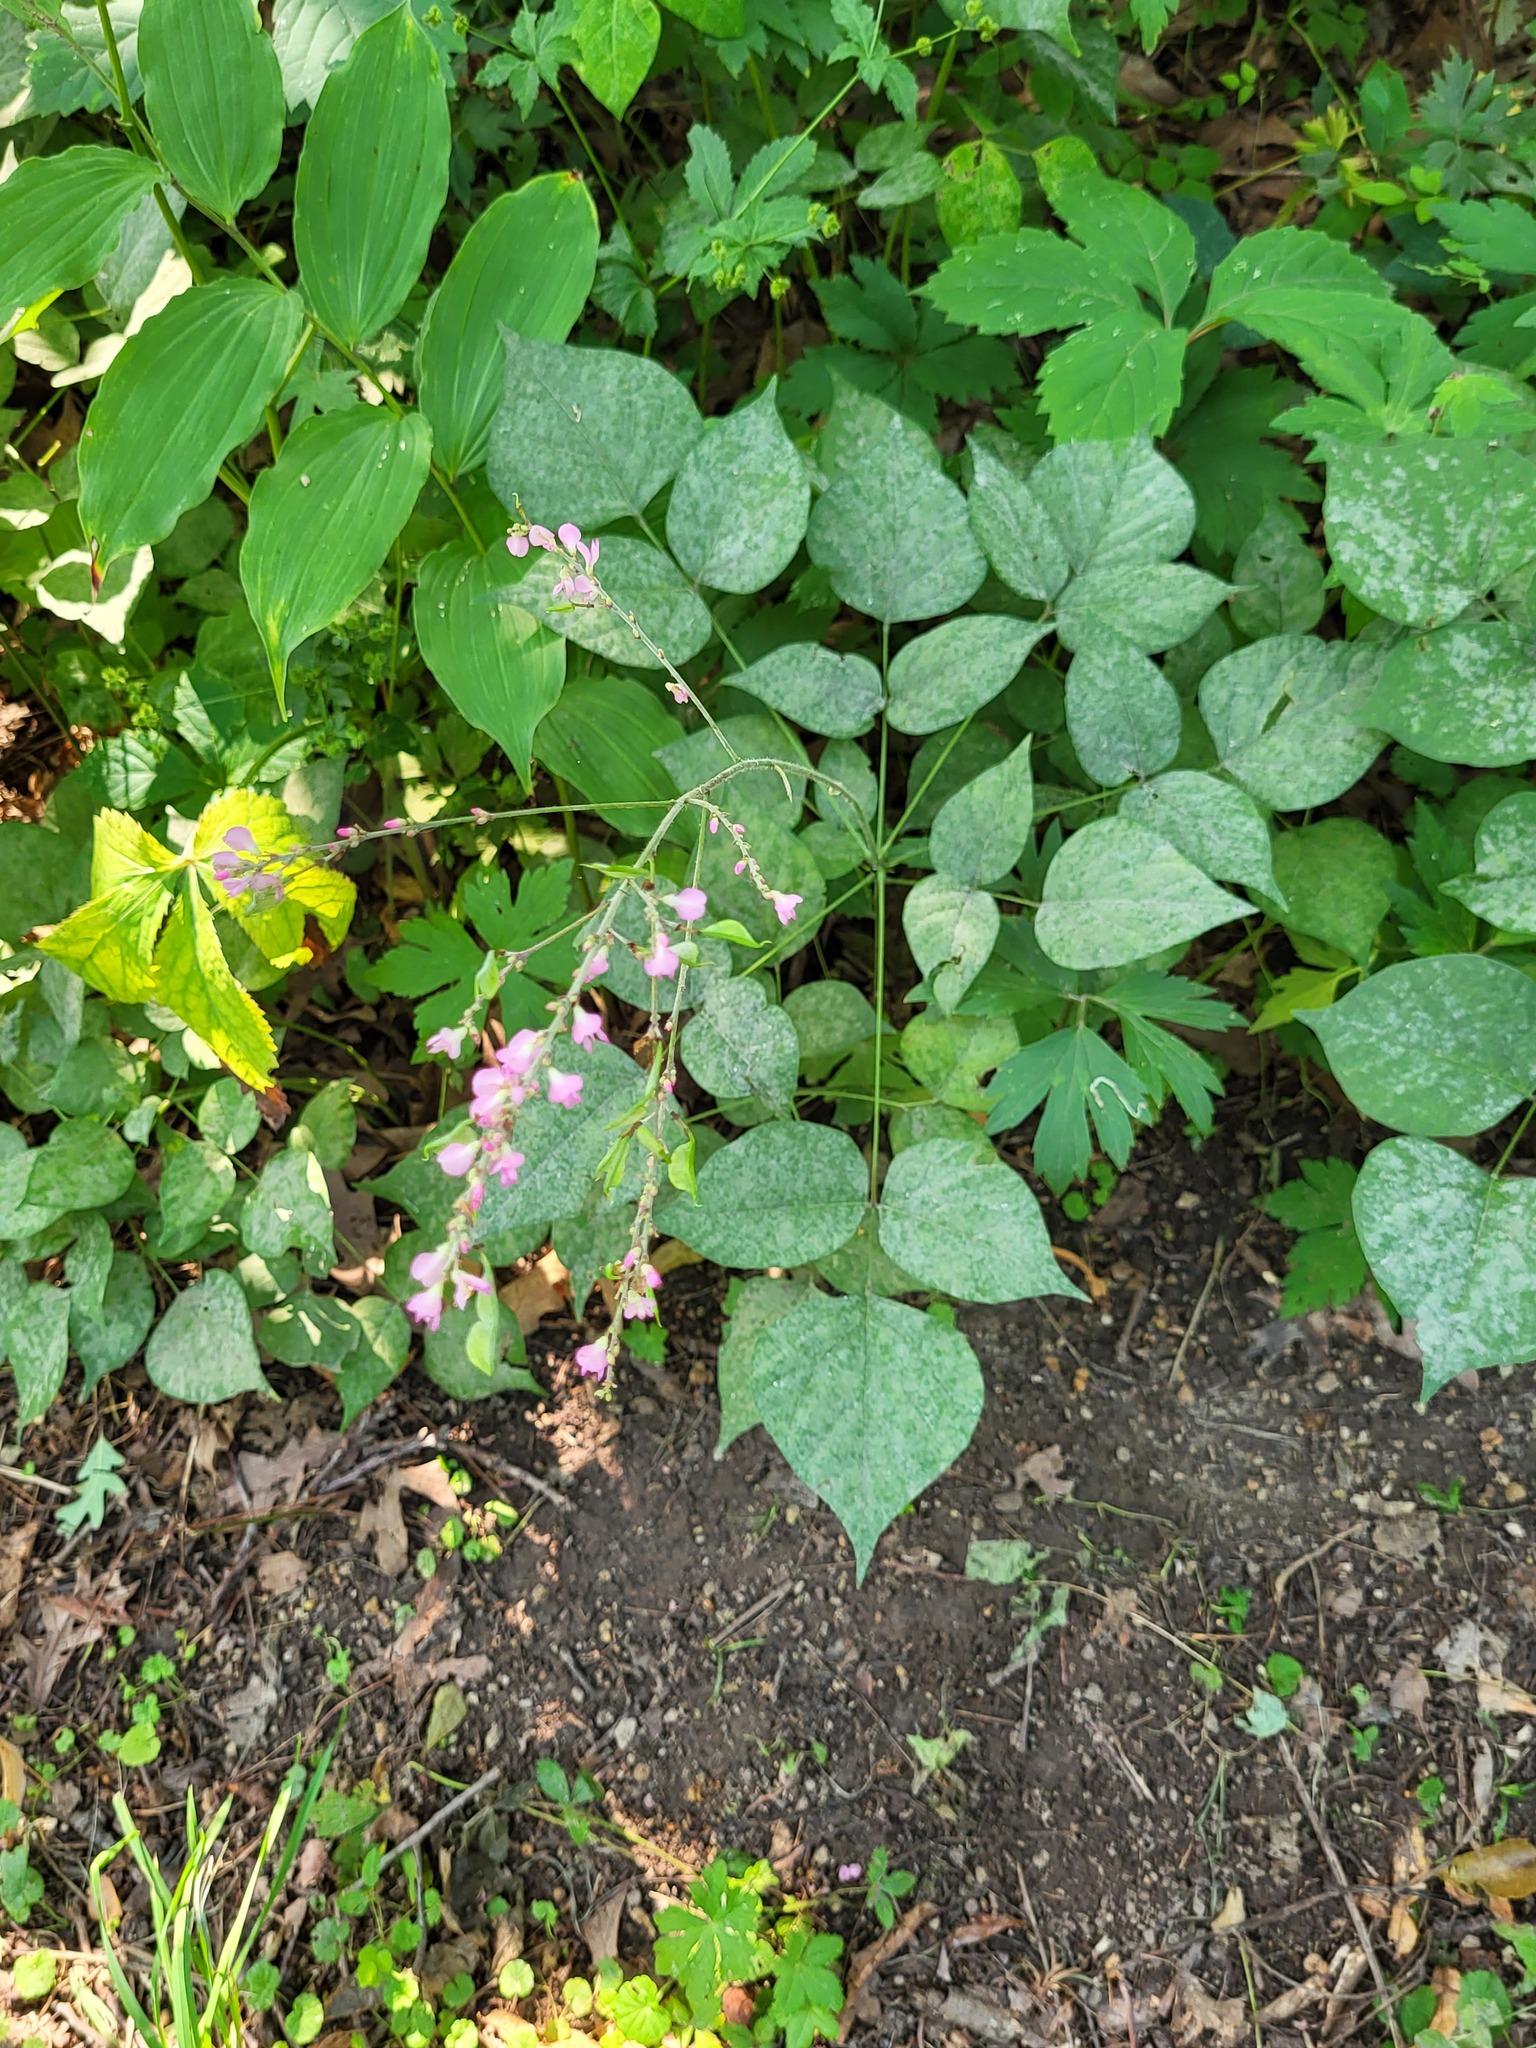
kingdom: Plantae
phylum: Tracheophyta
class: Magnoliopsida
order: Fabales
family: Fabaceae
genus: Hylodesmum
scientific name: Hylodesmum glutinosum
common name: Clustered-leaved tick-trefoil
